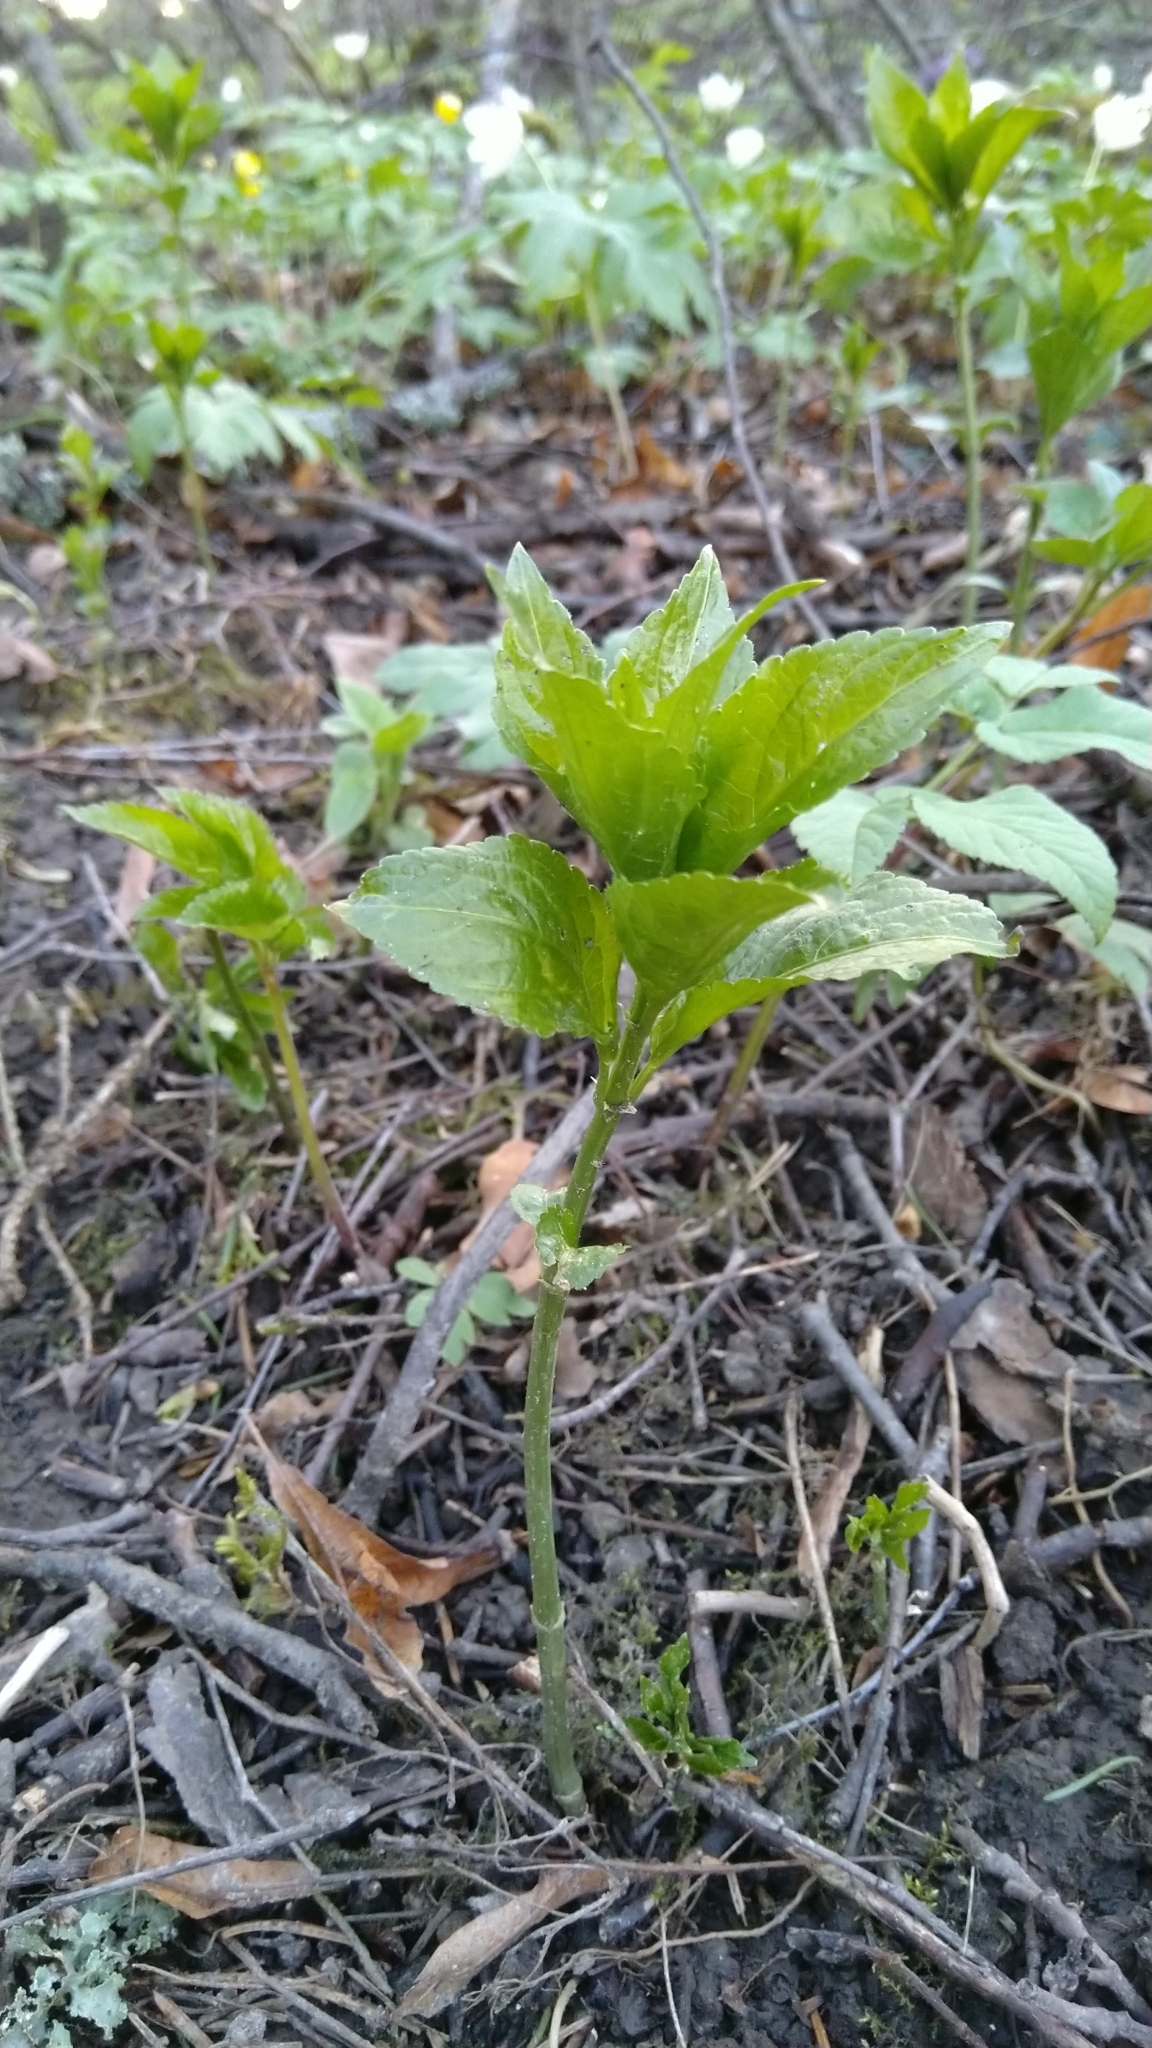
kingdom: Plantae
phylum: Tracheophyta
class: Magnoliopsida
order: Malpighiales
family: Euphorbiaceae
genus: Mercurialis
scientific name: Mercurialis perennis
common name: Dog mercury
